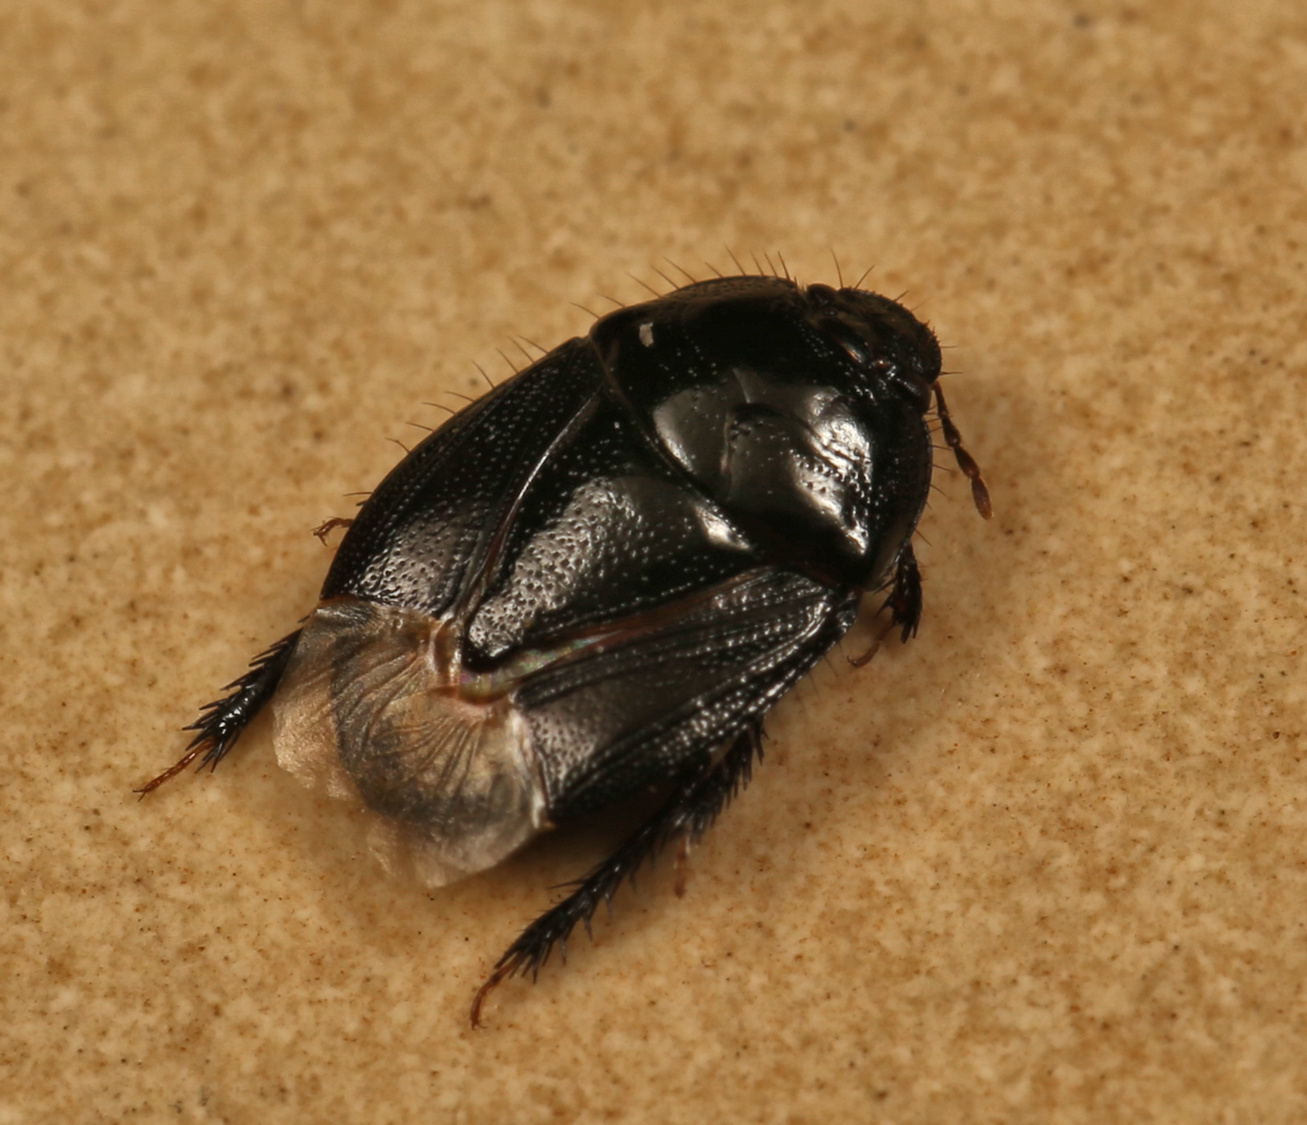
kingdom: Animalia
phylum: Arthropoda
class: Insecta
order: Hemiptera
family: Cydnidae
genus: Aethus
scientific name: Aethus perosus
